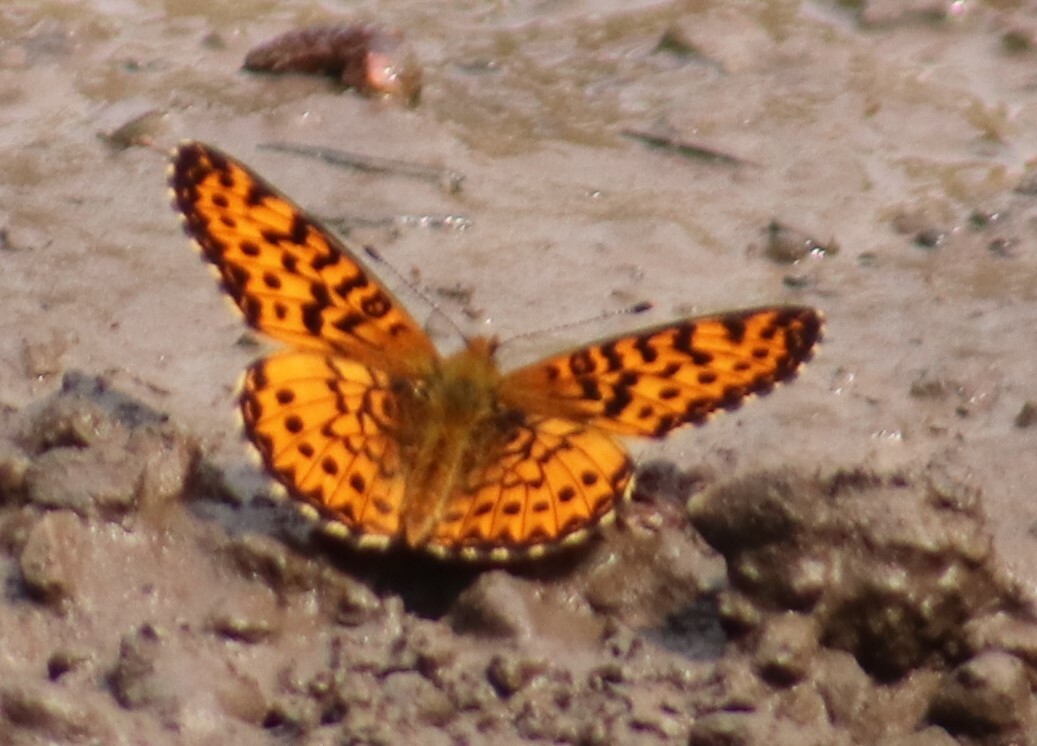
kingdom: Animalia
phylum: Arthropoda
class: Insecta
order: Lepidoptera
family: Nymphalidae
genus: Boloria
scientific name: Boloria chariclea
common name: Arctic fritillary
